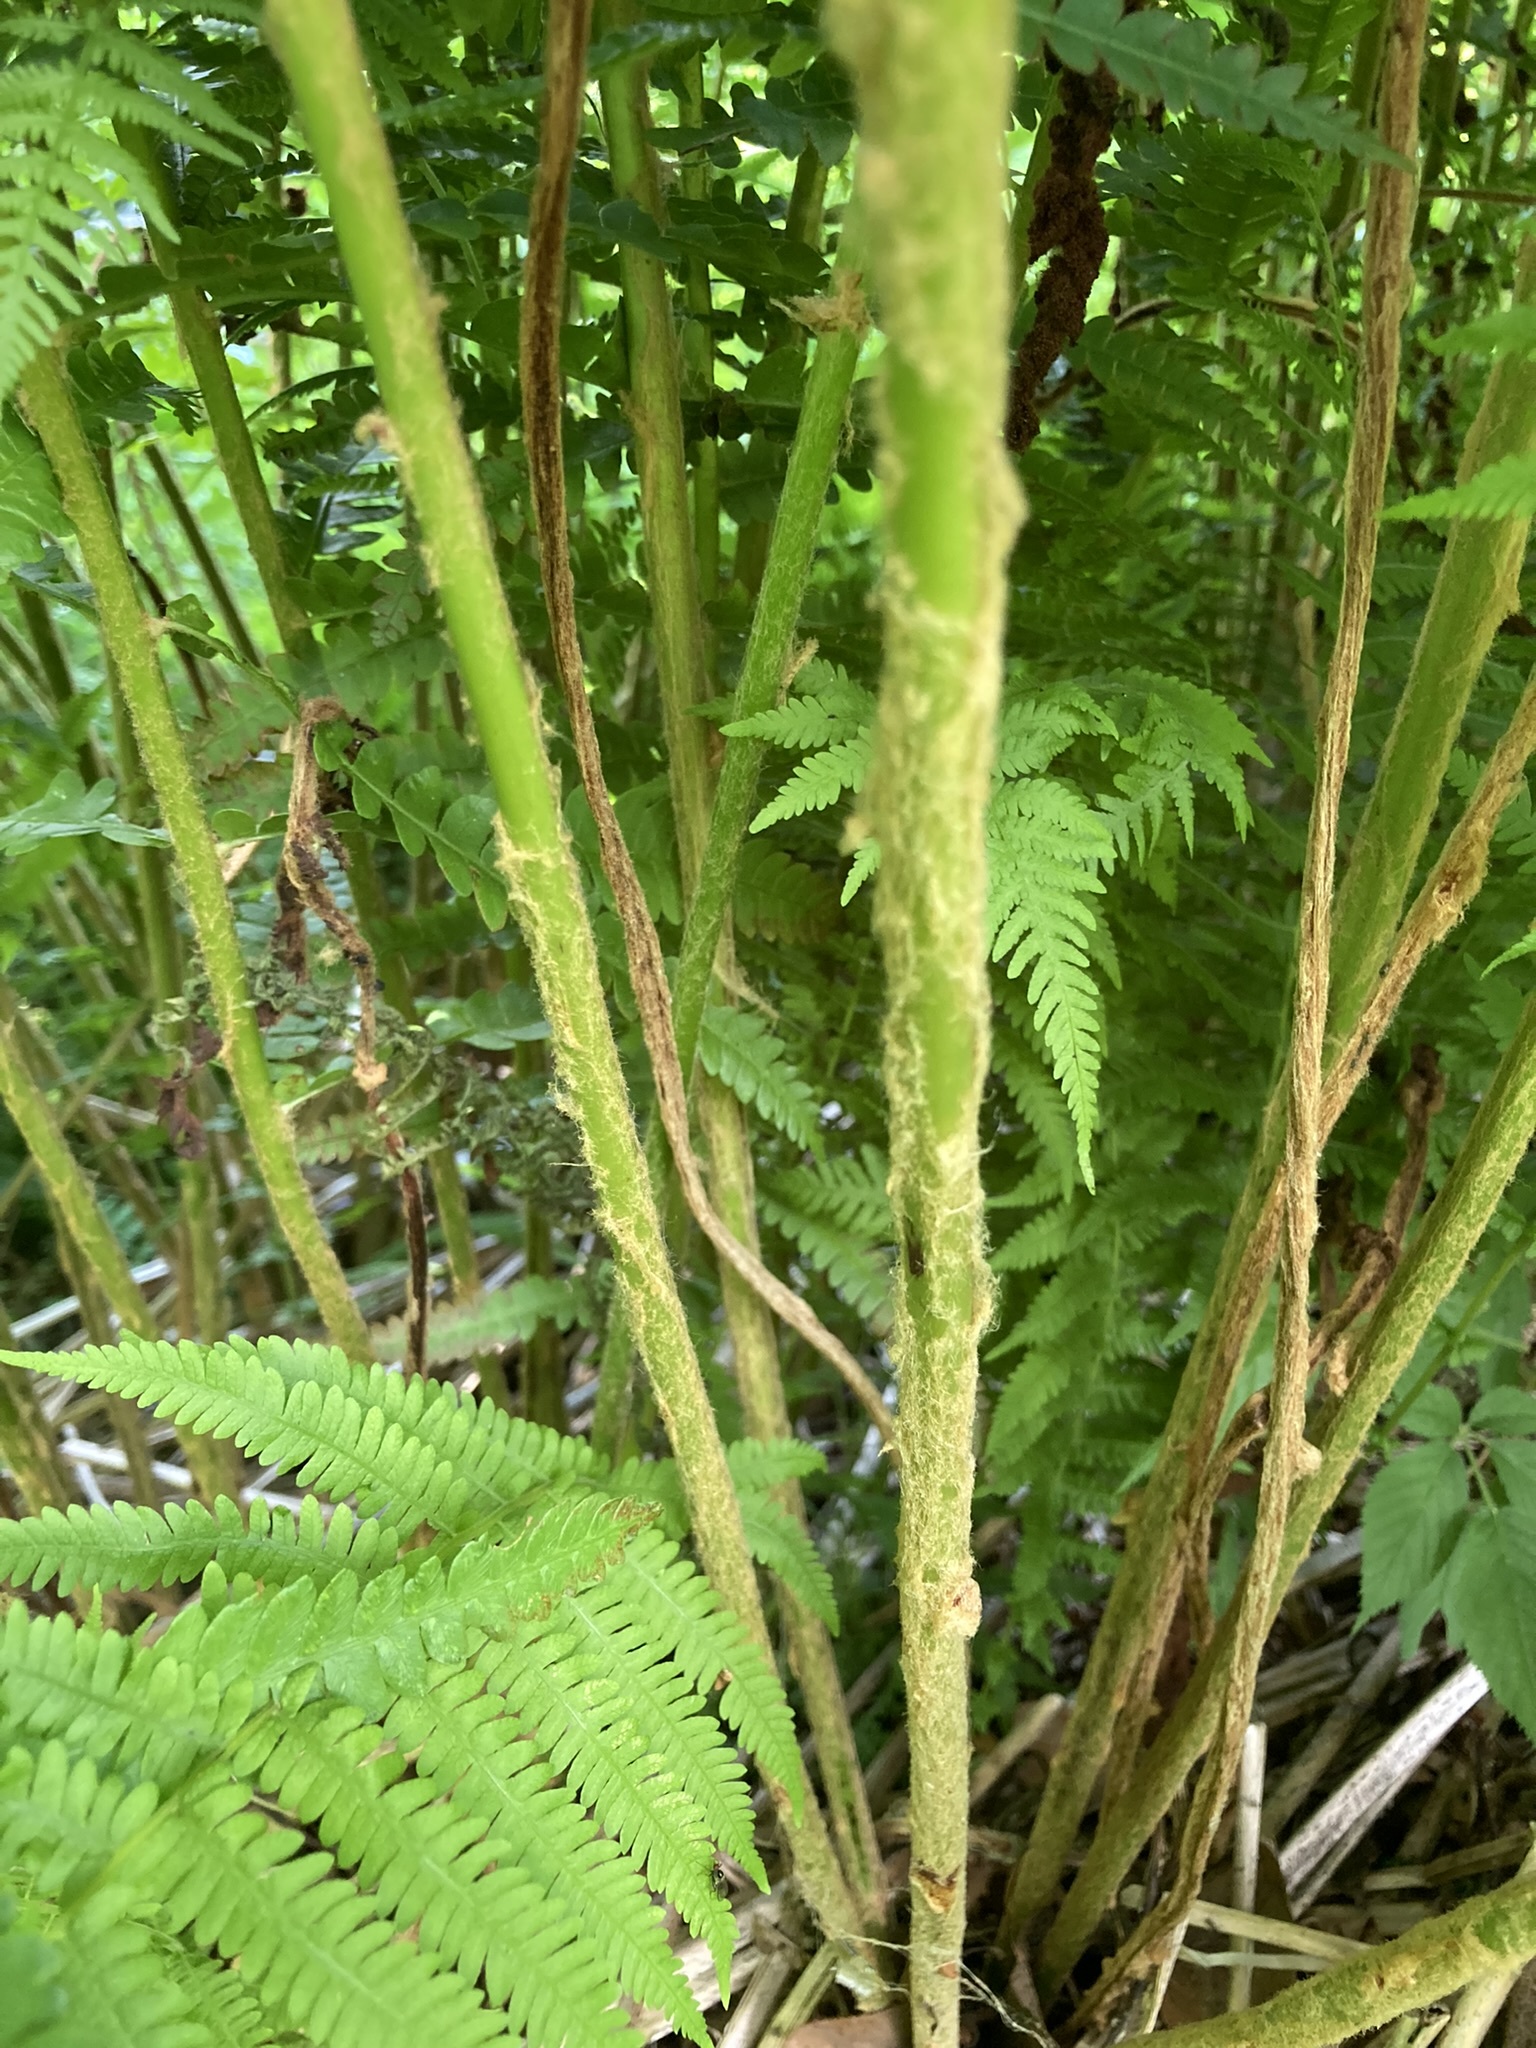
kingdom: Plantae
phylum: Tracheophyta
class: Polypodiopsida
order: Osmundales
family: Osmundaceae
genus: Osmundastrum
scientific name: Osmundastrum cinnamomeum
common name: Cinnamon fern
